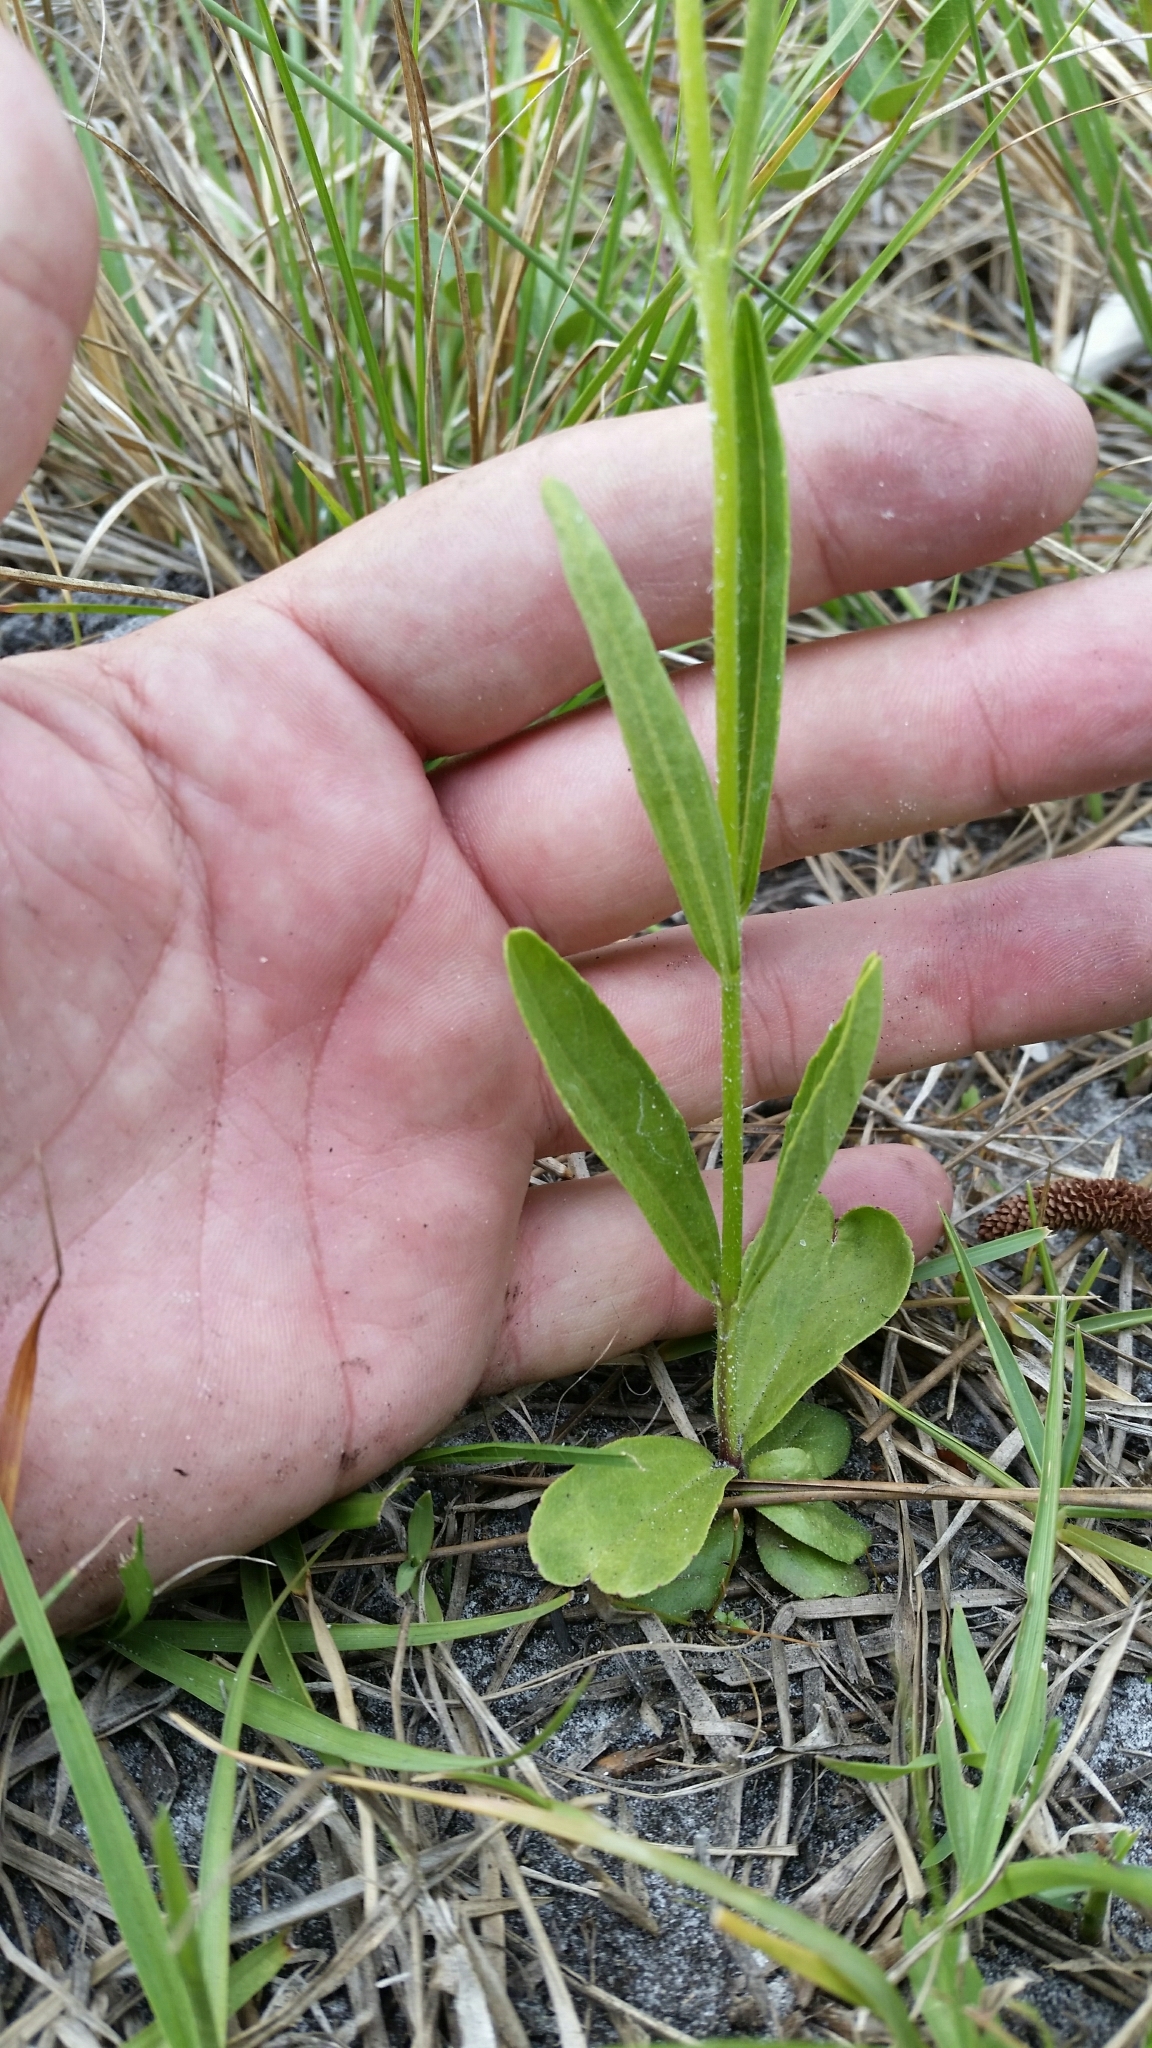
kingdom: Plantae
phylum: Tracheophyta
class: Magnoliopsida
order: Lamiales
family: Orobanchaceae
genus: Buchnera
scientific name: Buchnera floridana
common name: Florida bluehearts
